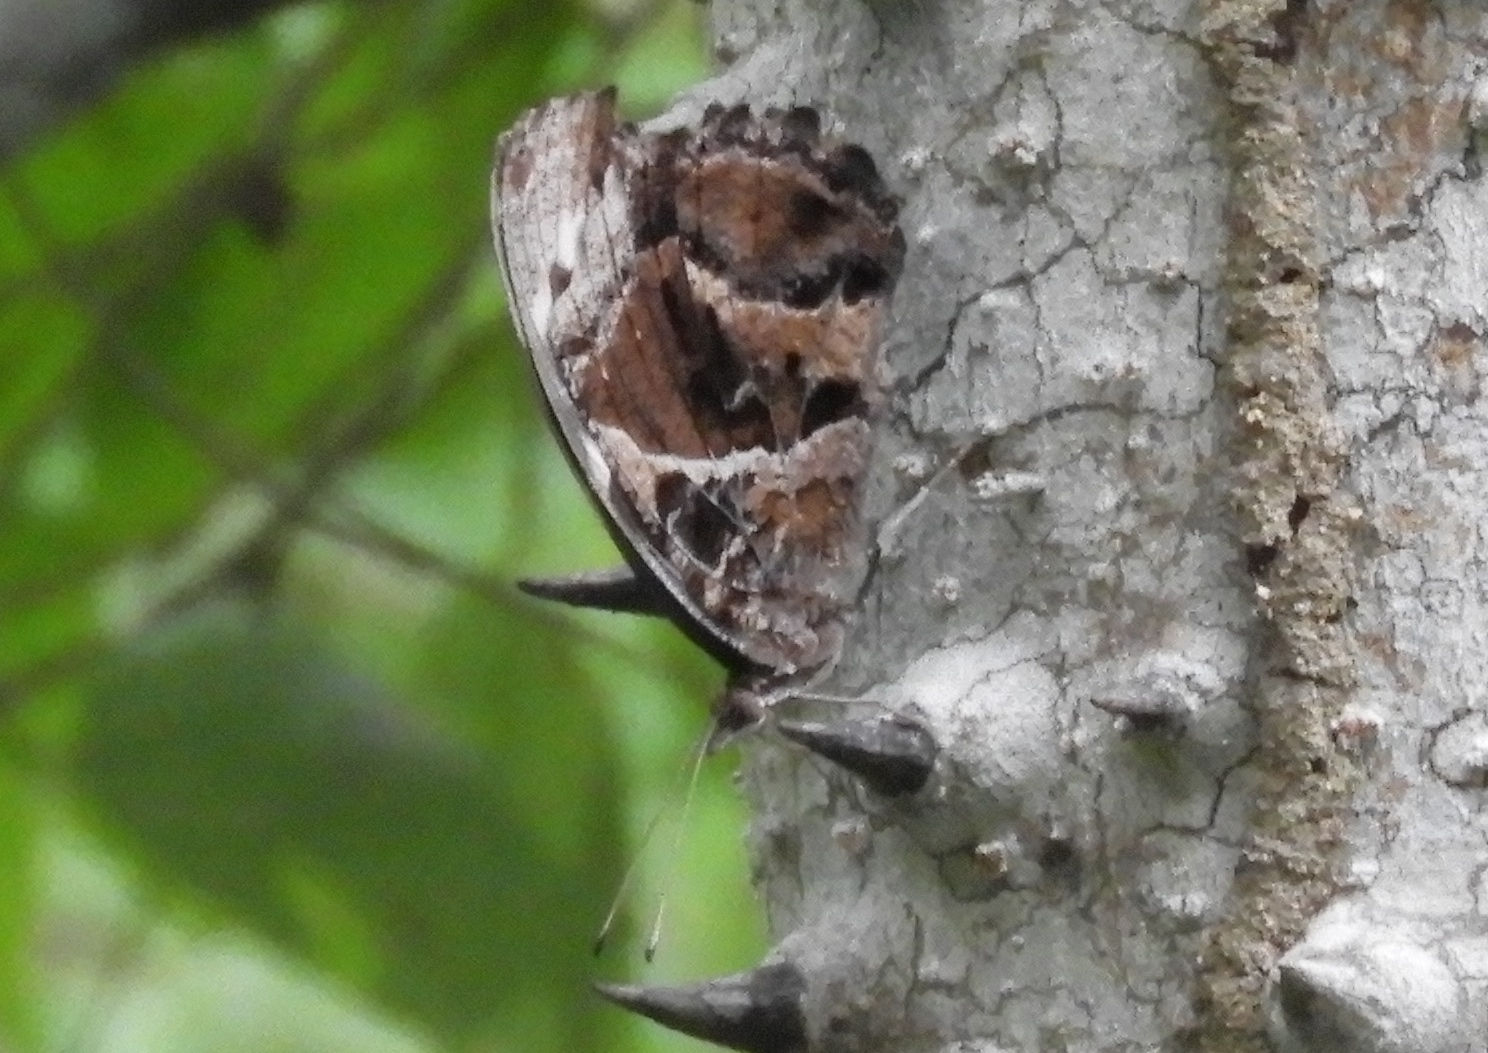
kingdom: Animalia
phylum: Arthropoda
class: Insecta
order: Lepidoptera
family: Nymphalidae
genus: Myscelia
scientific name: Myscelia
